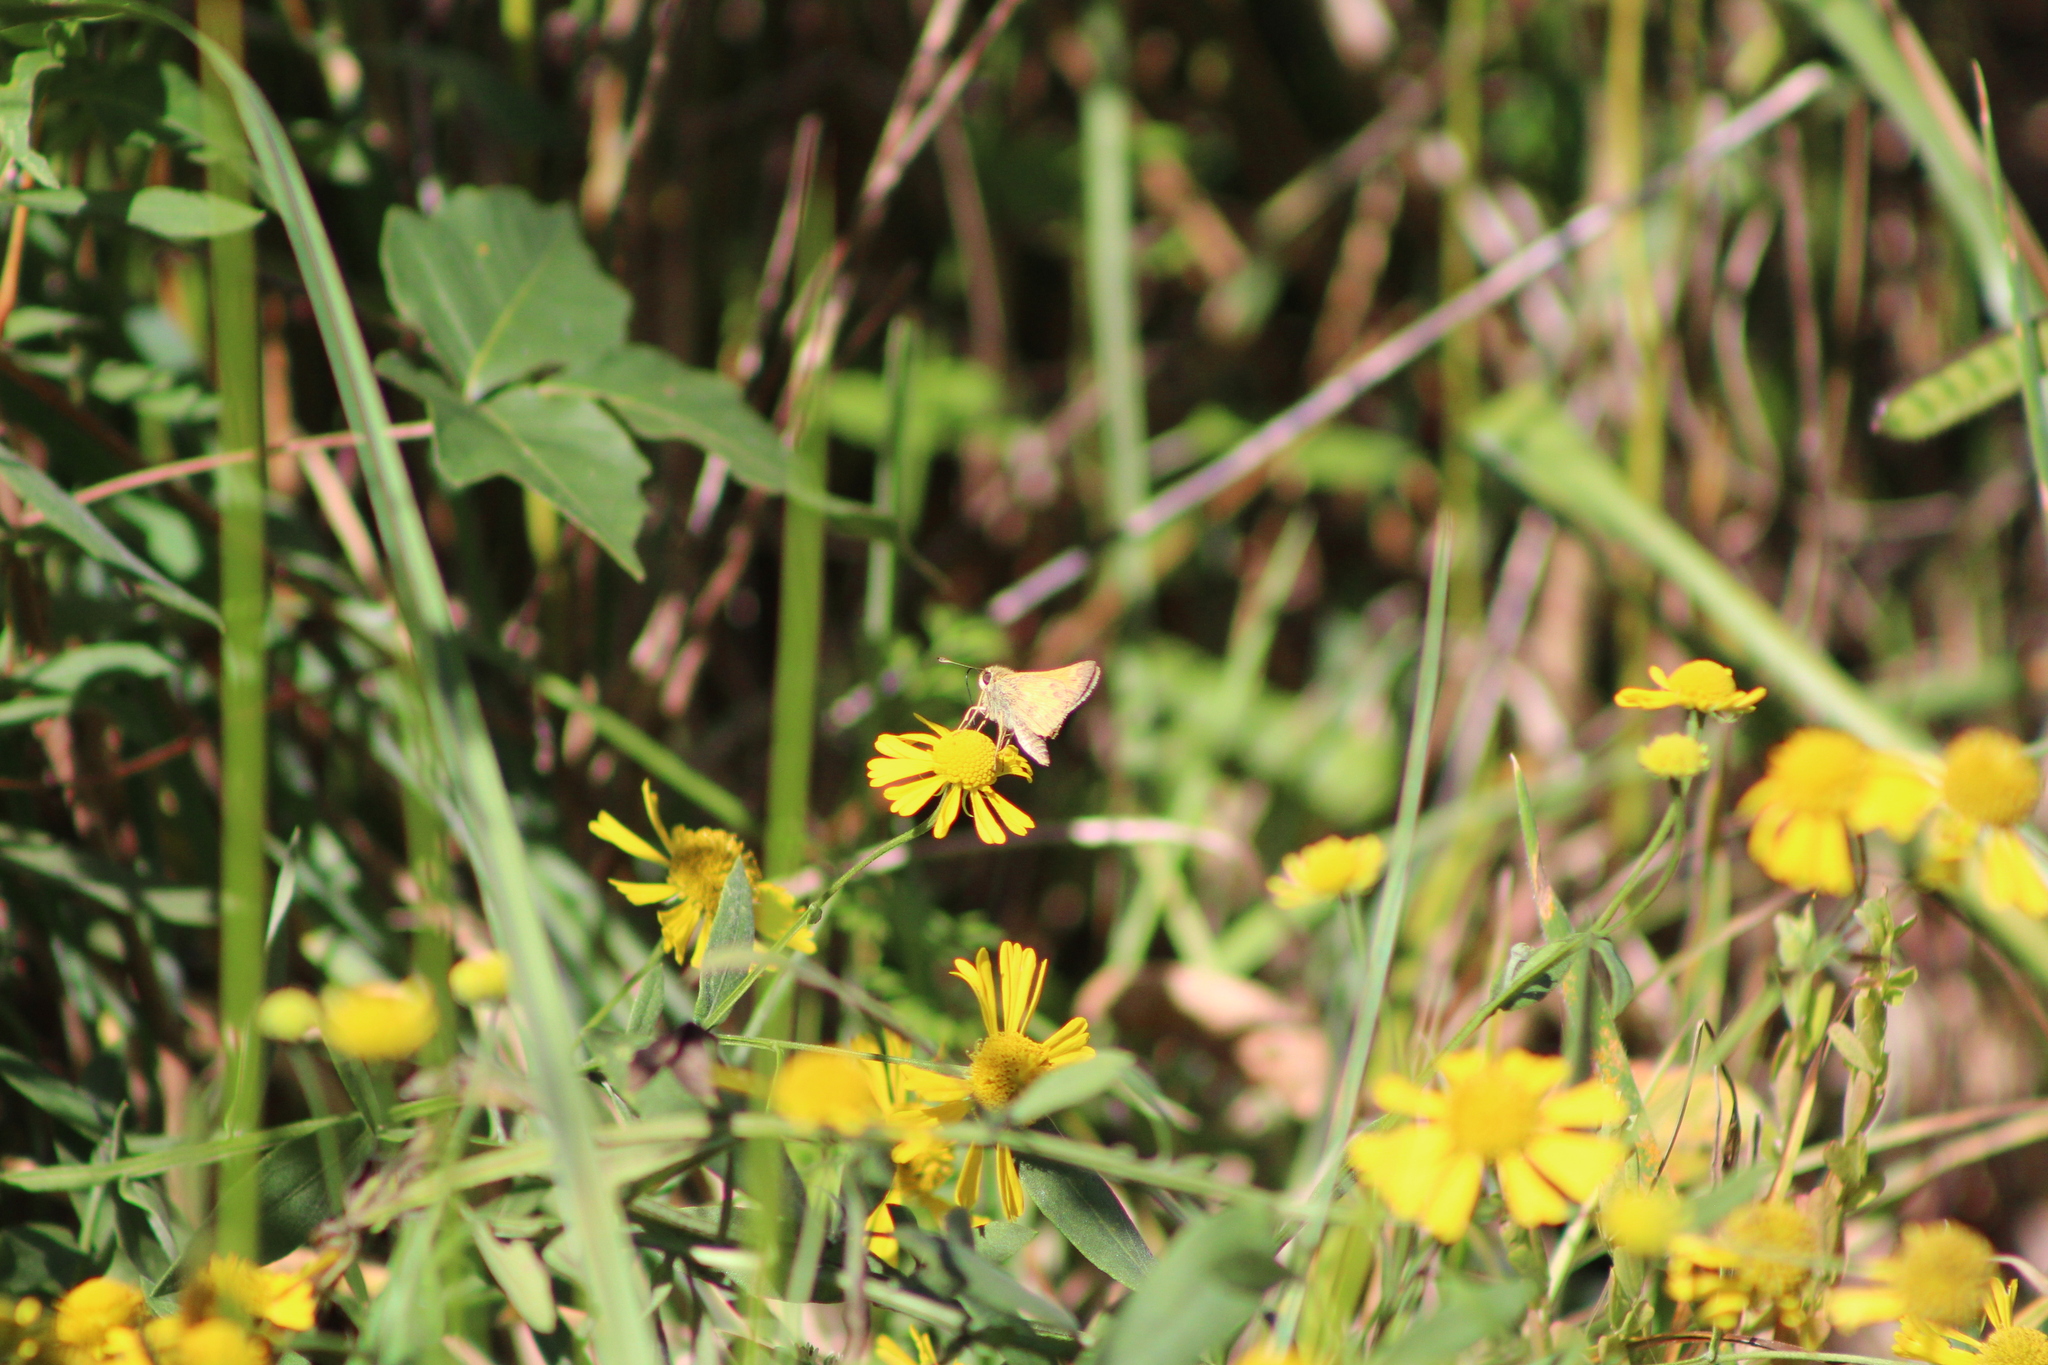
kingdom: Animalia
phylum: Arthropoda
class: Insecta
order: Lepidoptera
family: Hesperiidae
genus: Atalopedes
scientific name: Atalopedes
